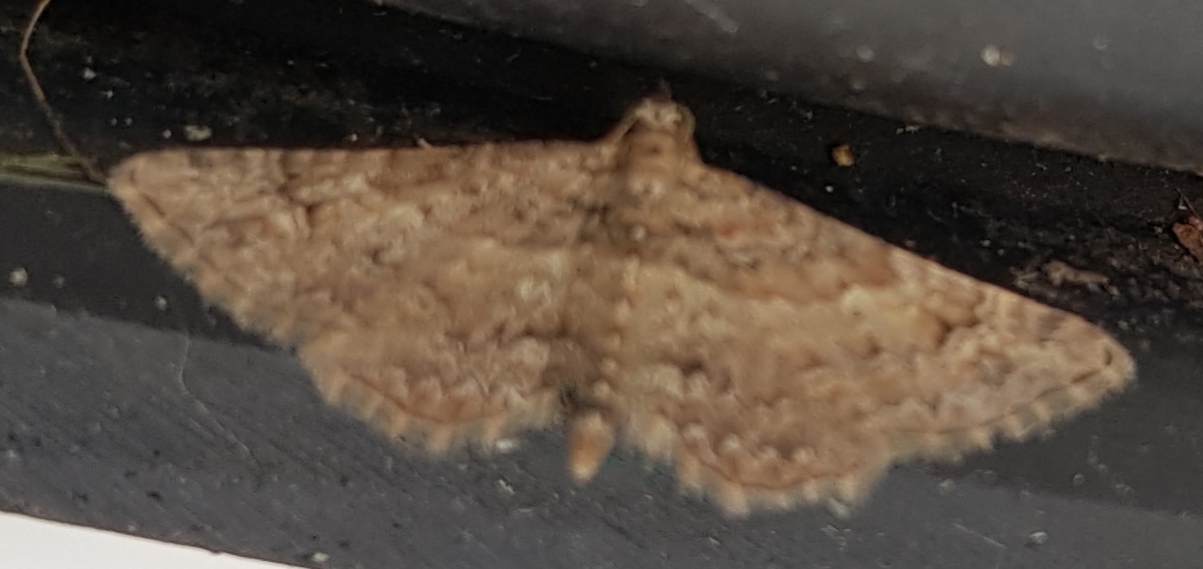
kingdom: Animalia
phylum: Arthropoda
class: Insecta
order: Lepidoptera
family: Geometridae
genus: Gymnoscelis
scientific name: Gymnoscelis rufifasciata
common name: Double-striped pug
